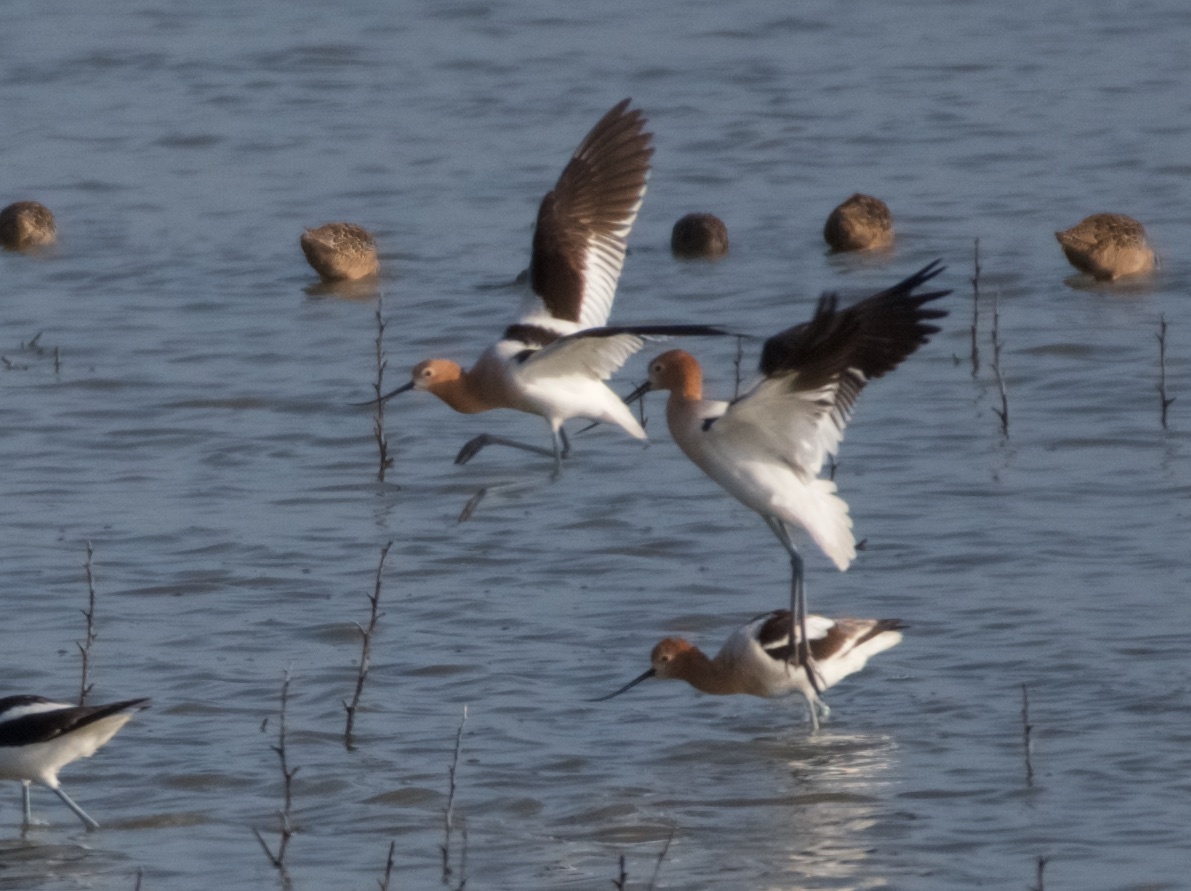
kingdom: Animalia
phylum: Chordata
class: Aves
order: Charadriiformes
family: Recurvirostridae
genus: Recurvirostra
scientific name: Recurvirostra americana
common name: American avocet
